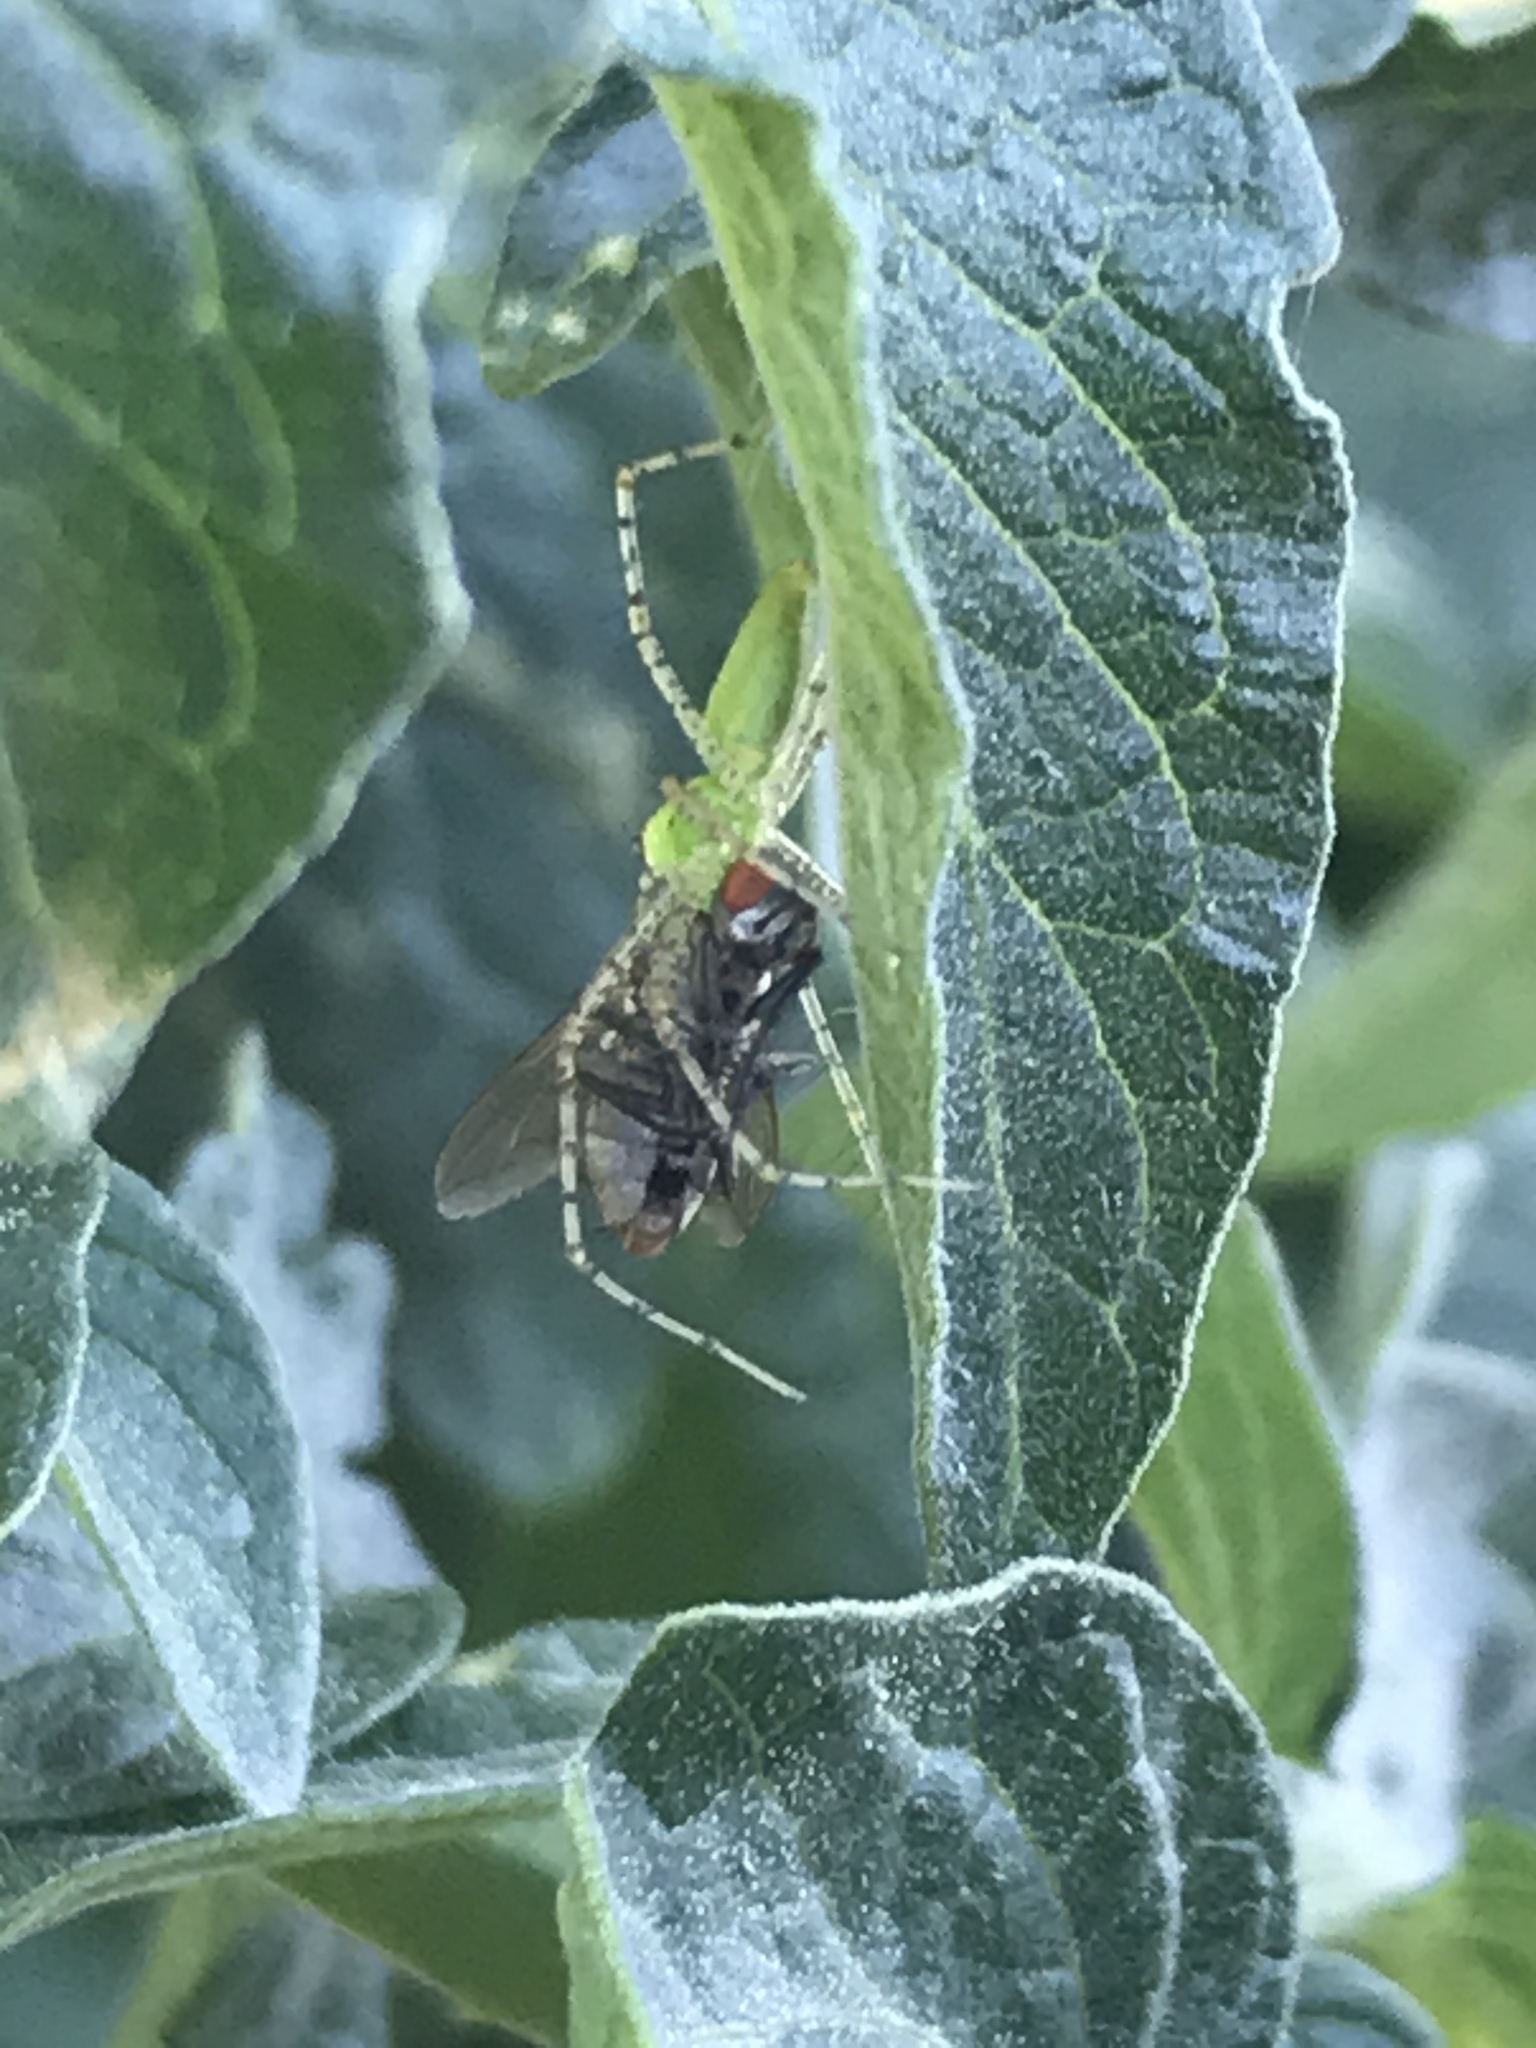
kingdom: Animalia
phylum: Arthropoda
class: Arachnida
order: Araneae
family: Oxyopidae
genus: Peucetia
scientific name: Peucetia viridans
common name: Lynx spiders
